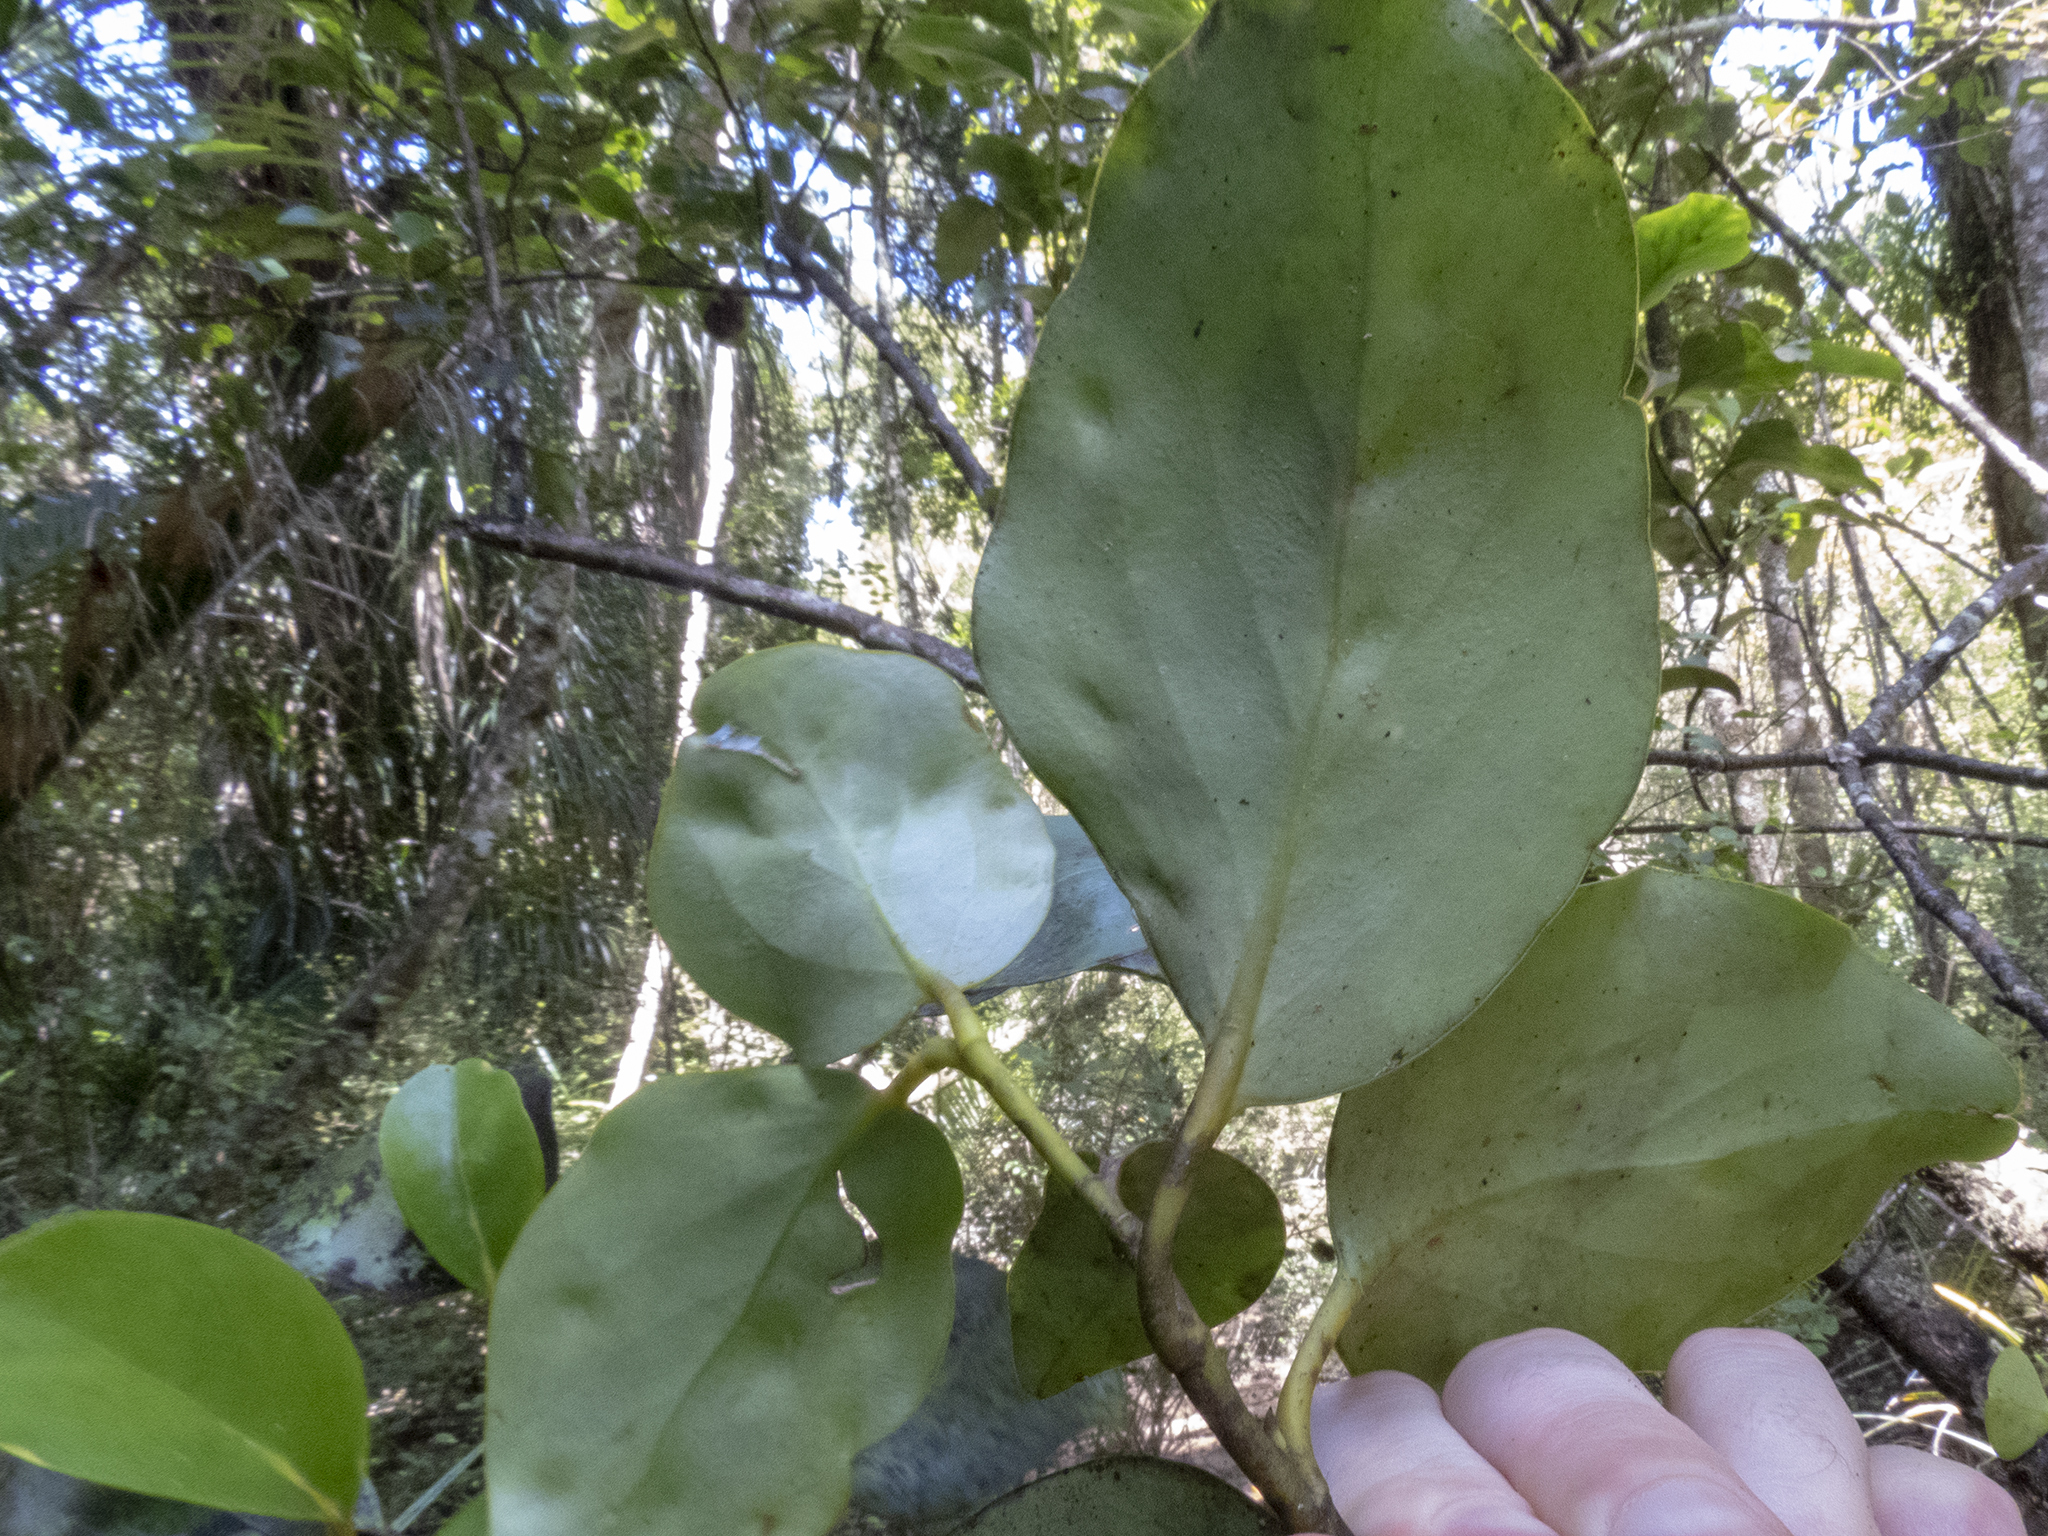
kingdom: Plantae
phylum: Tracheophyta
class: Magnoliopsida
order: Apiales
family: Griseliniaceae
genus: Griselinia
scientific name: Griselinia lucida
